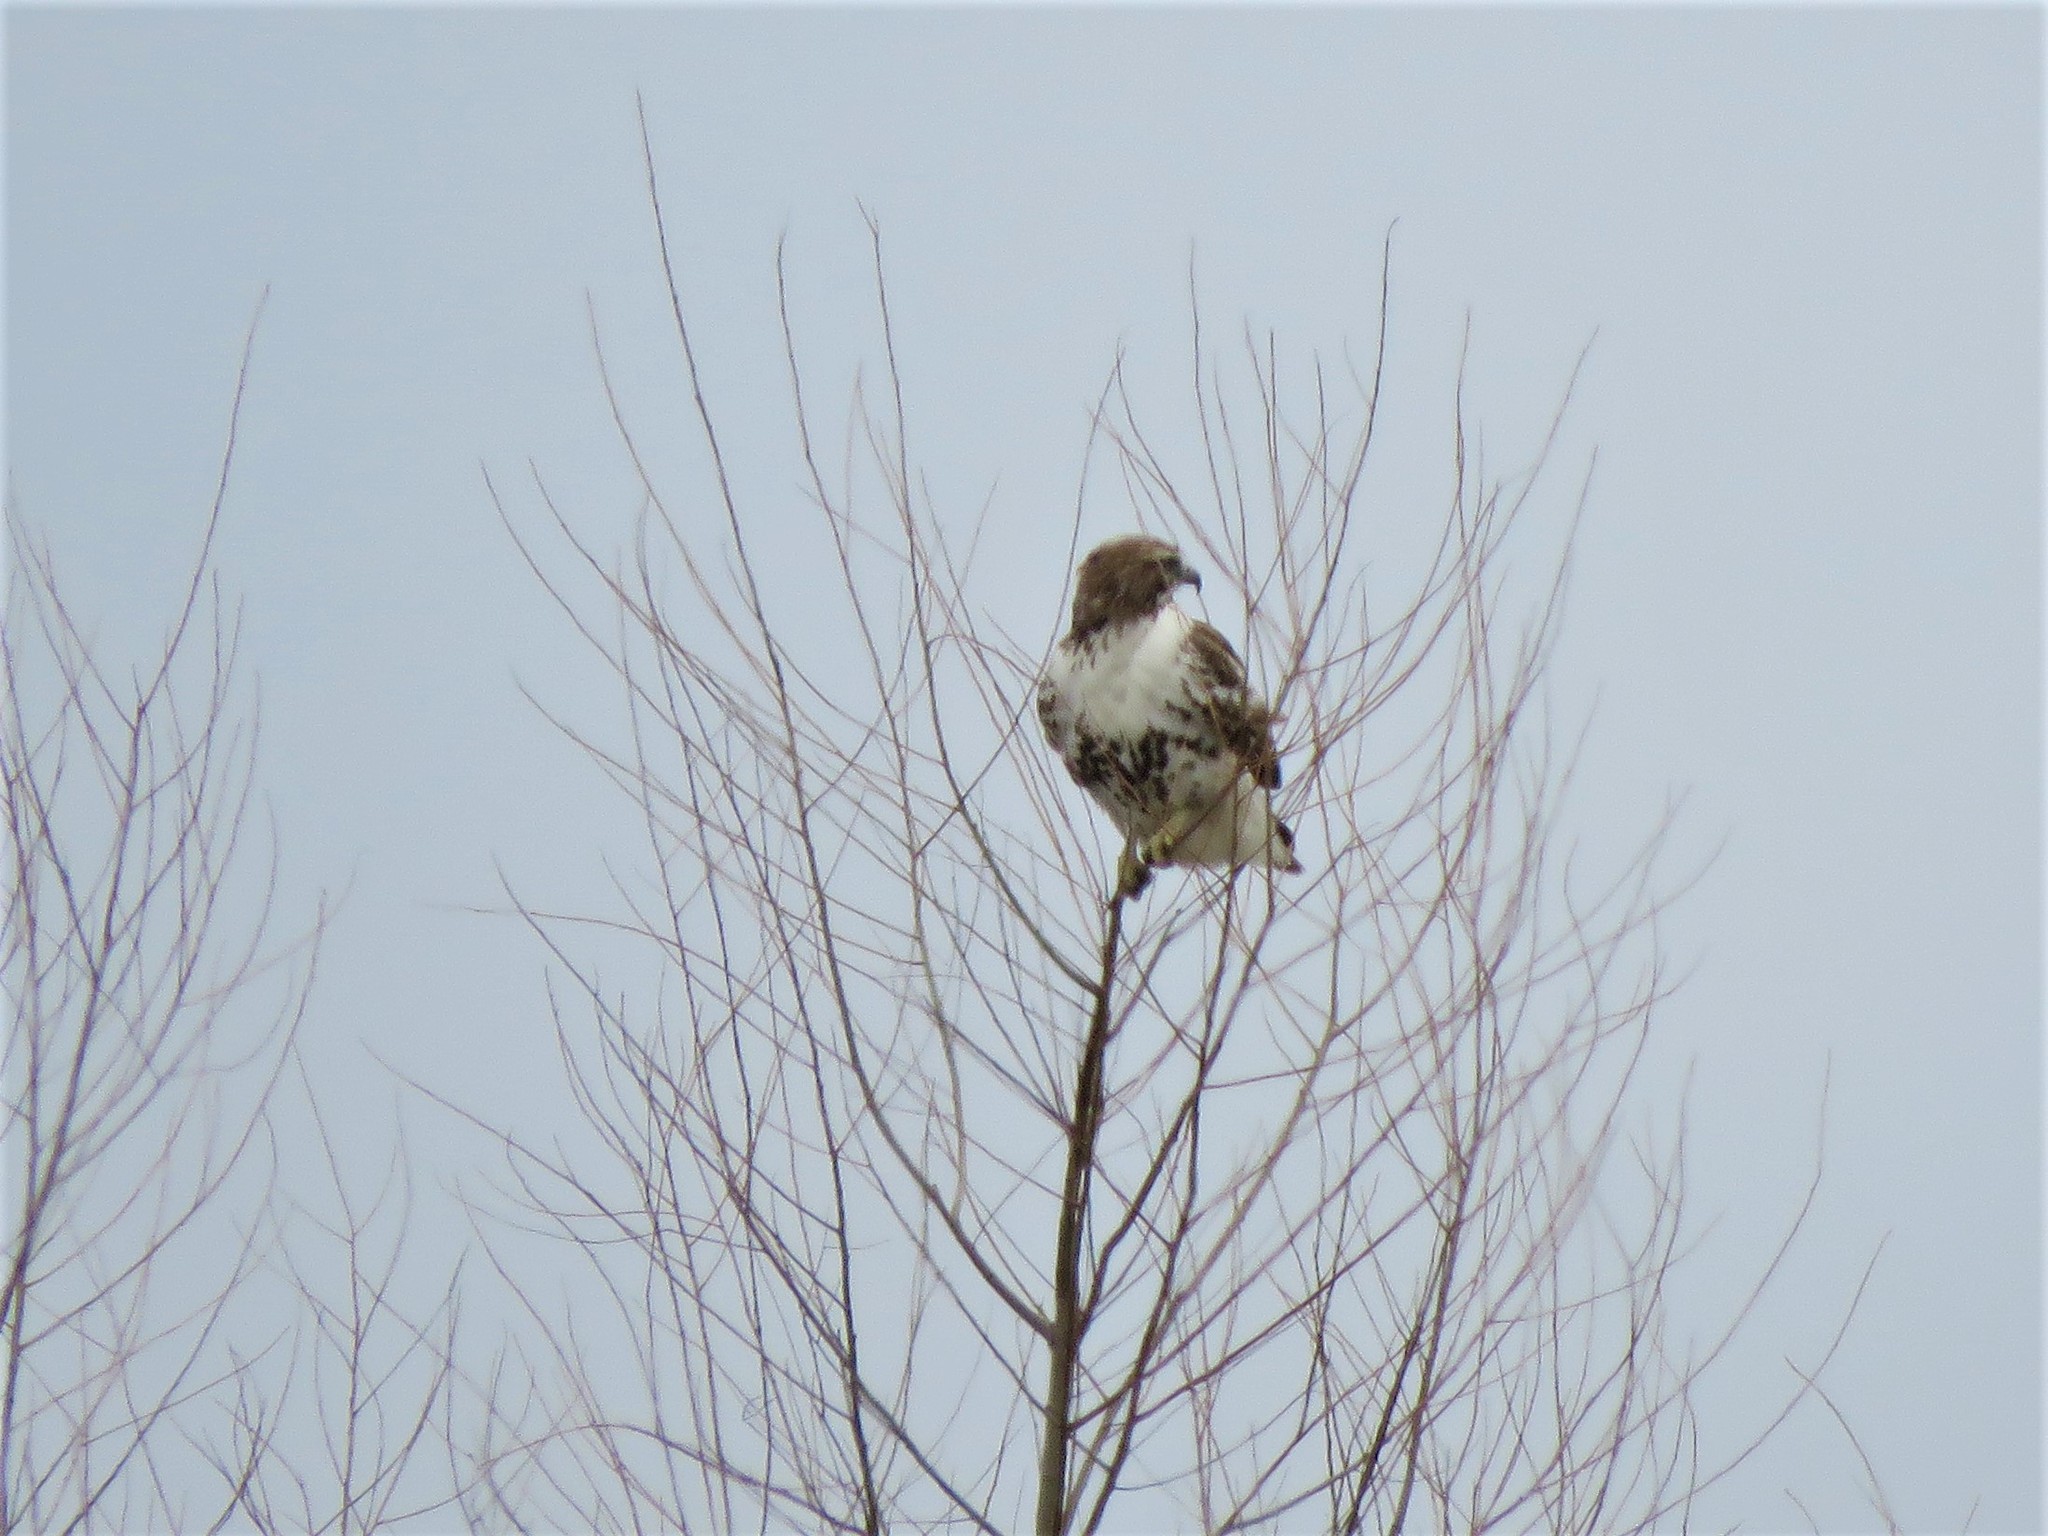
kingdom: Animalia
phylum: Chordata
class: Aves
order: Accipitriformes
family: Accipitridae
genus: Buteo
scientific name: Buteo jamaicensis
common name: Red-tailed hawk
